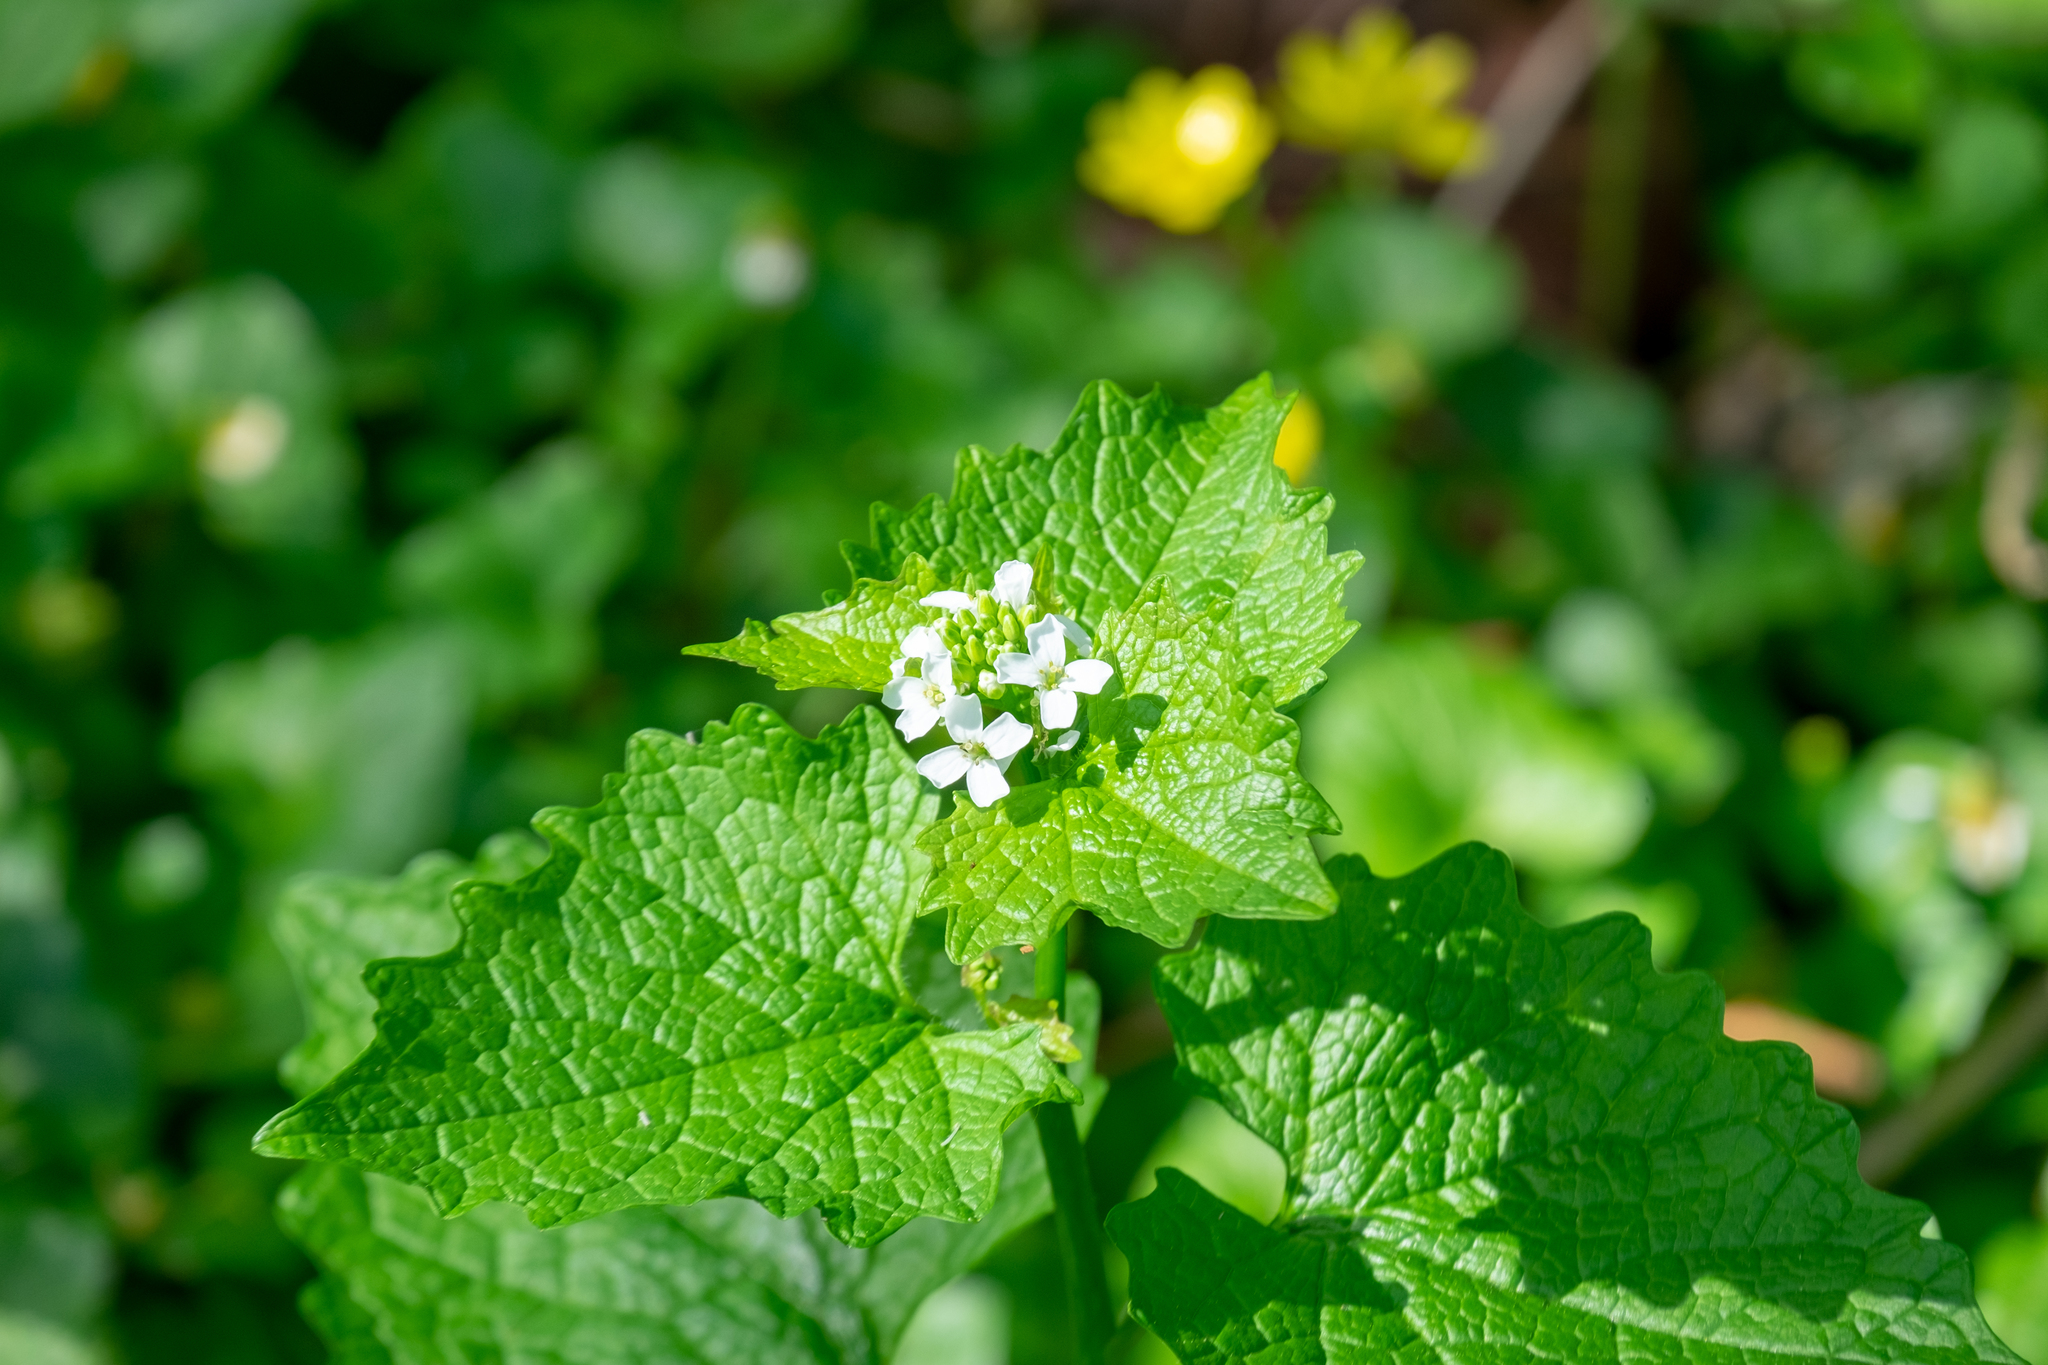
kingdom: Plantae
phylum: Tracheophyta
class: Magnoliopsida
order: Brassicales
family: Brassicaceae
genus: Alliaria
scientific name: Alliaria petiolata
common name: Garlic mustard
